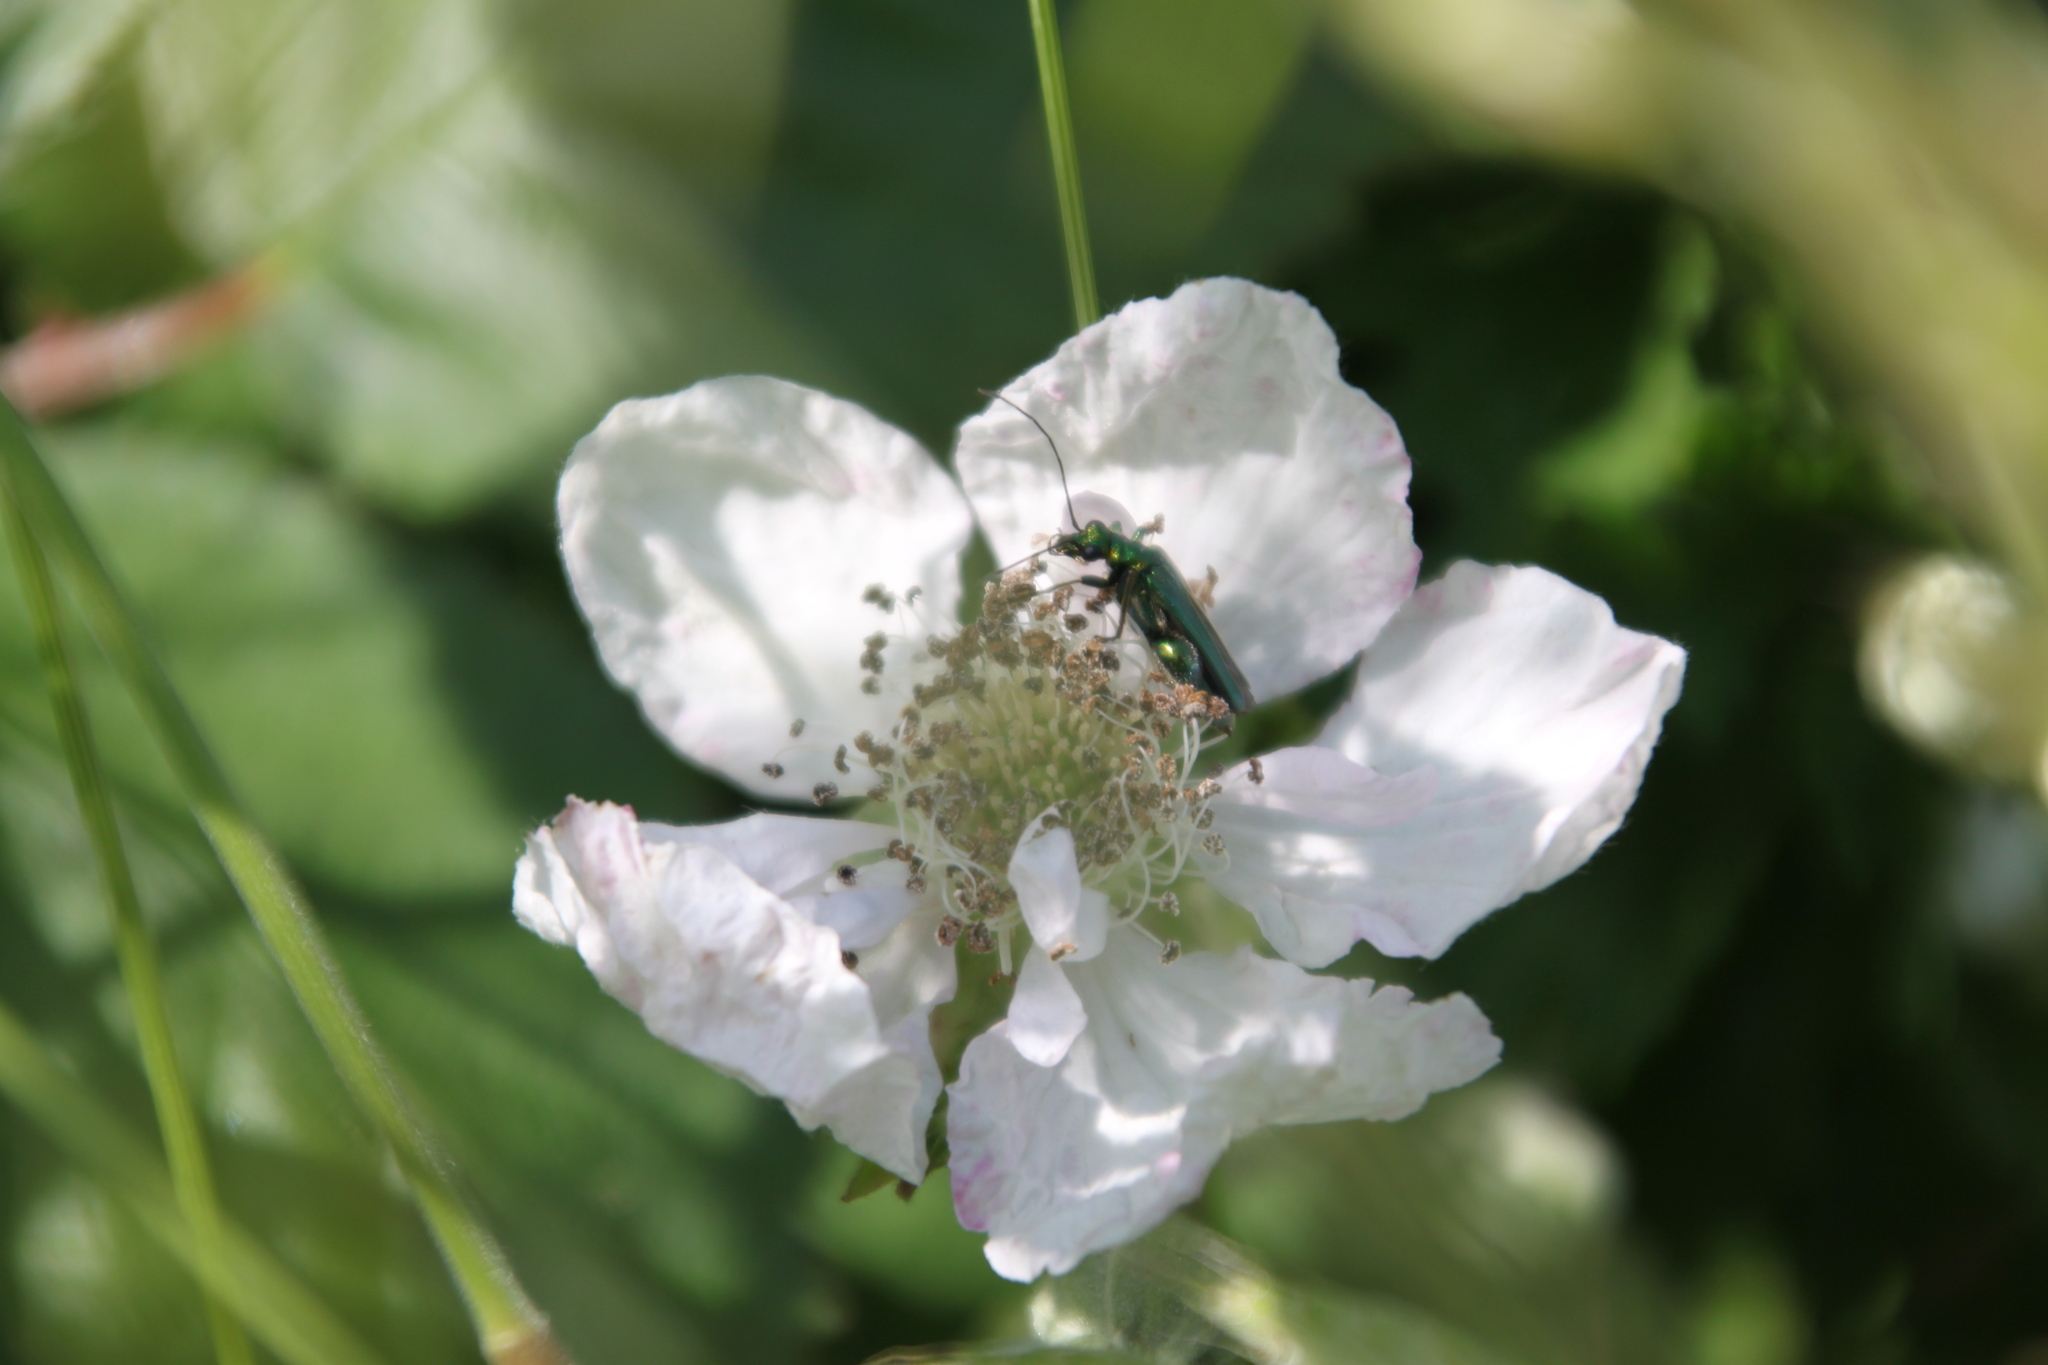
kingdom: Animalia
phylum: Arthropoda
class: Insecta
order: Coleoptera
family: Oedemeridae
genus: Oedemera
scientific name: Oedemera nobilis
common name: Swollen-thighed beetle
